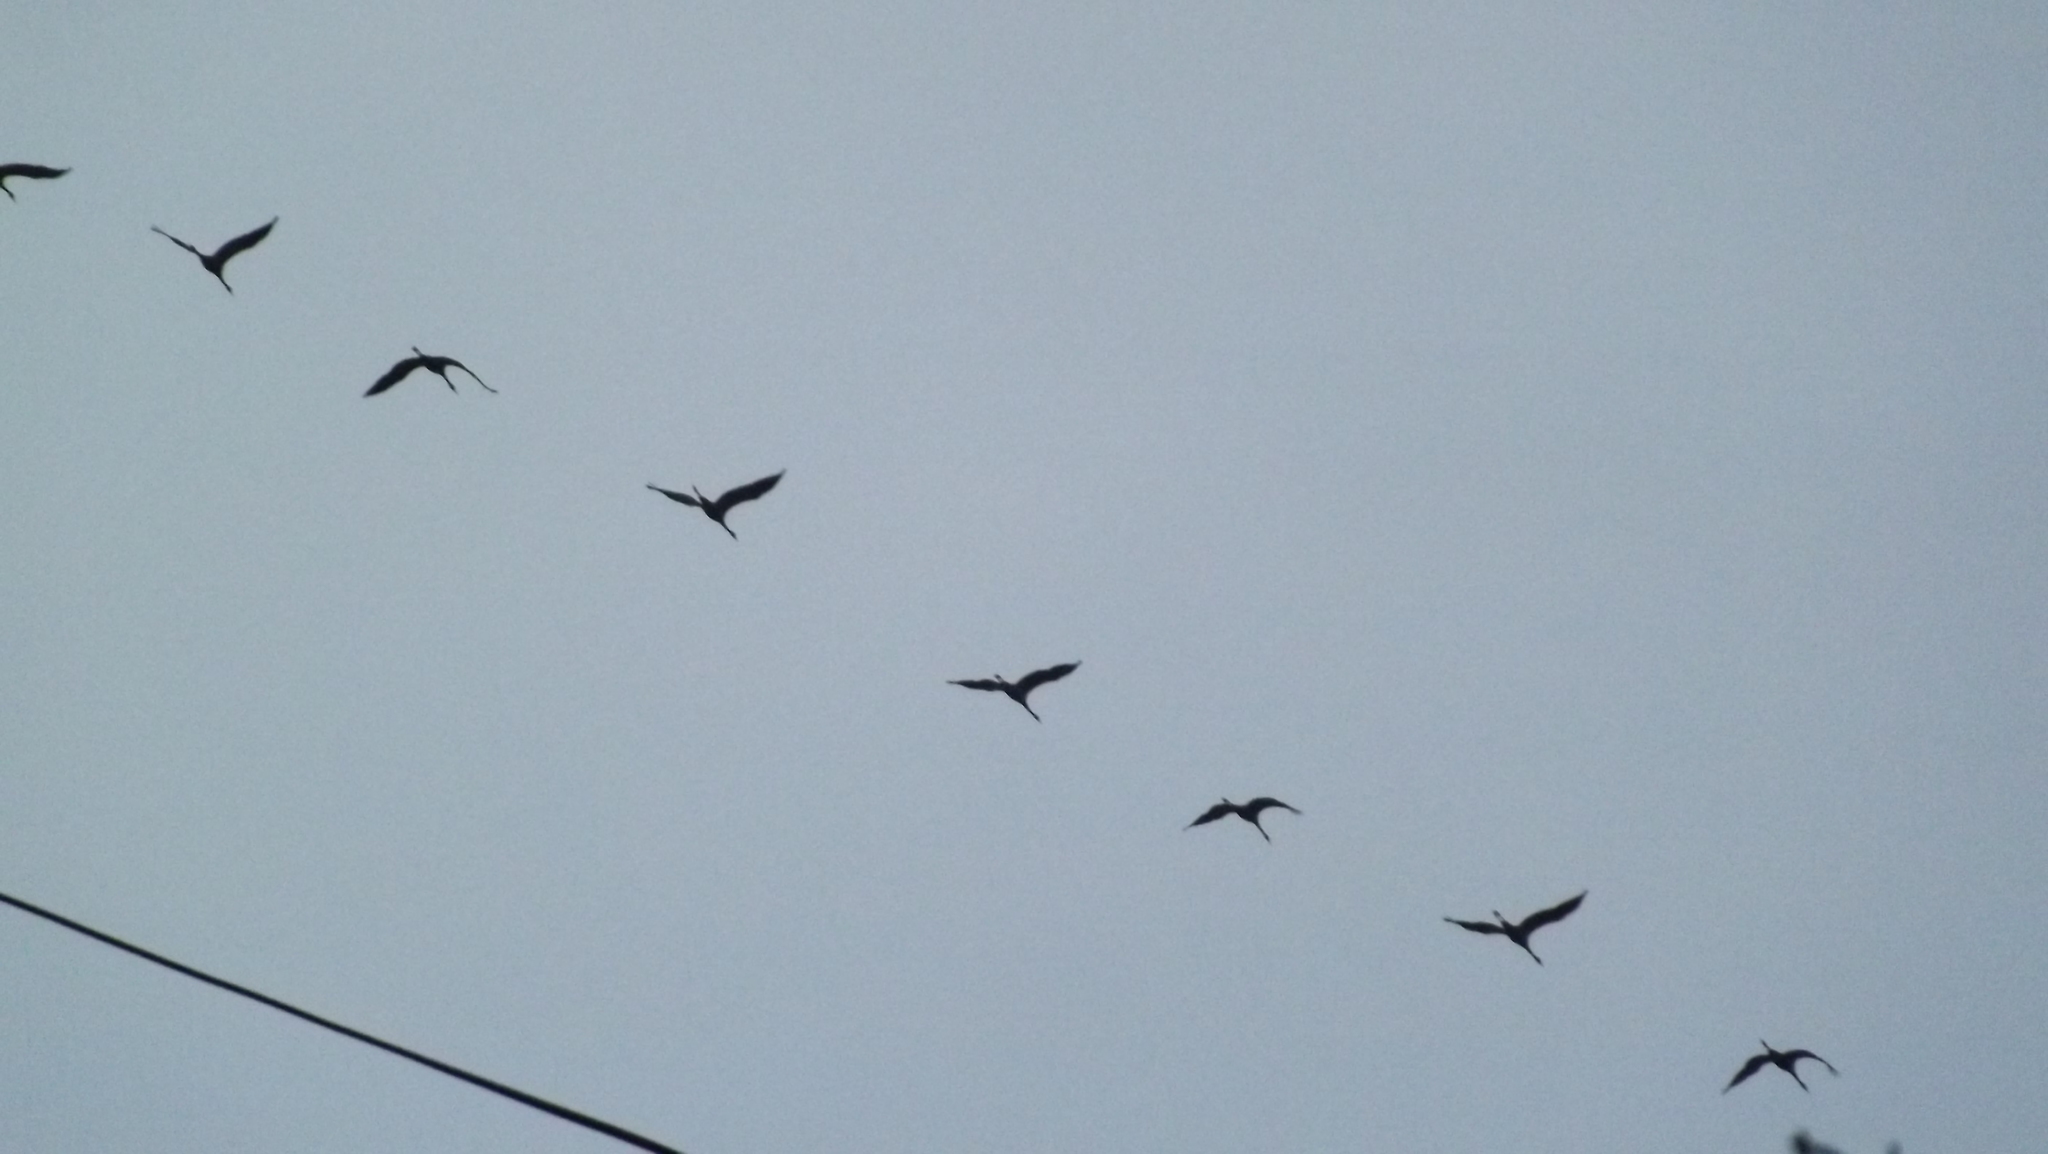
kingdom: Animalia
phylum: Chordata
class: Aves
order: Gruiformes
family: Gruidae
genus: Grus
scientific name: Grus grus
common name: Common crane
